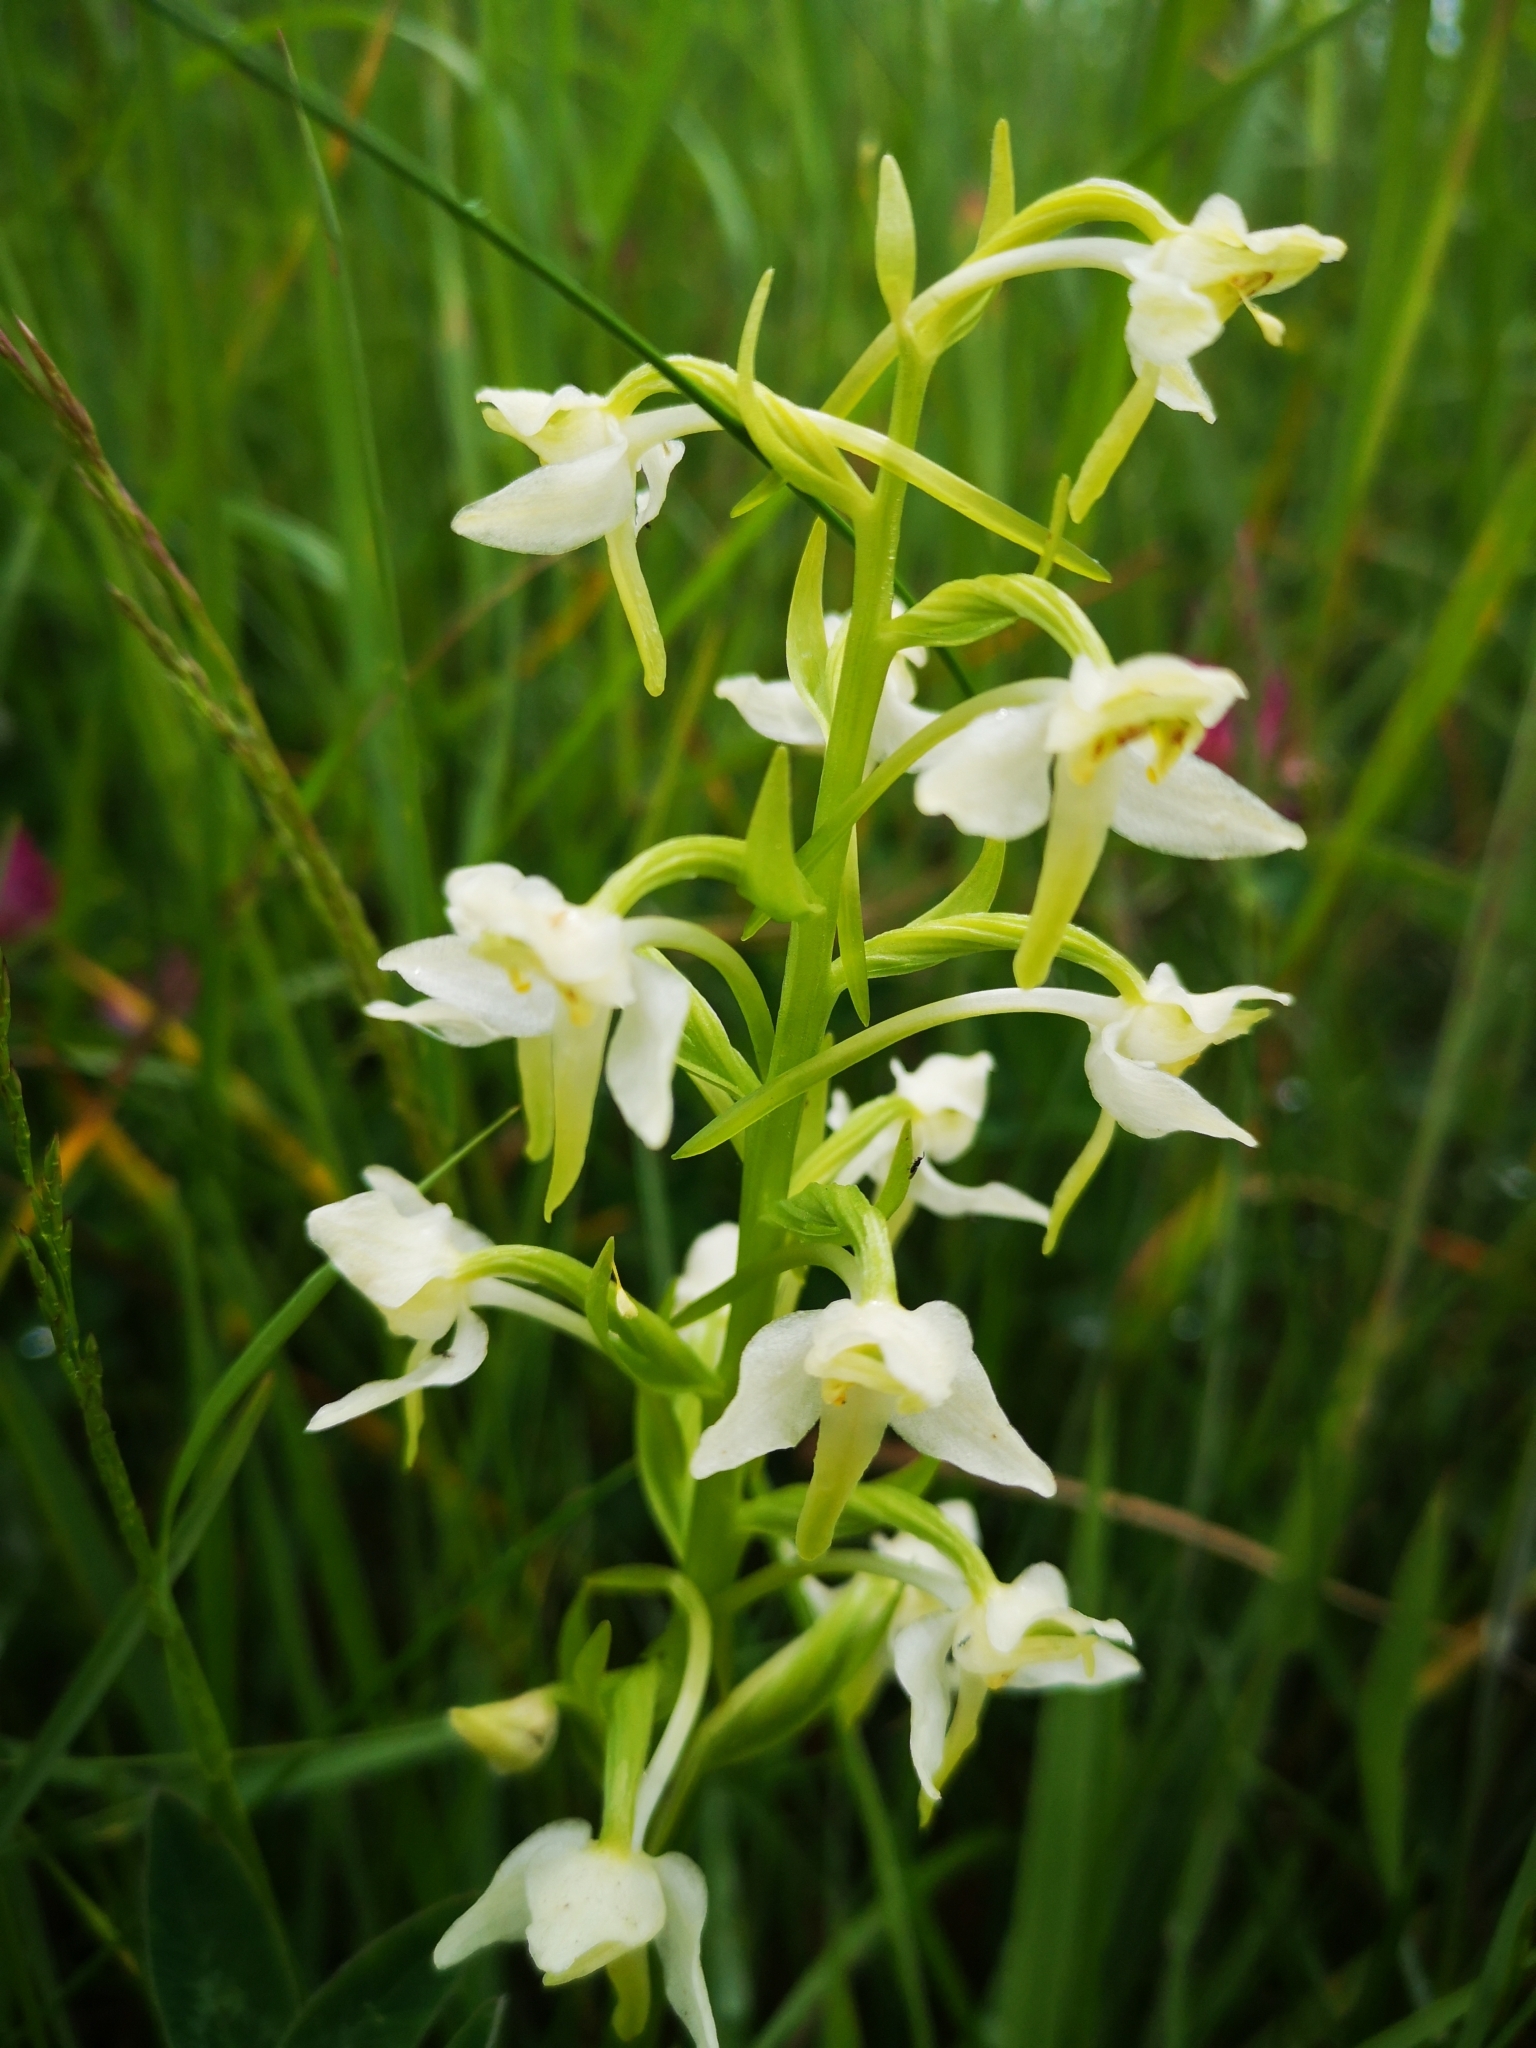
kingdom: Plantae
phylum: Tracheophyta
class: Liliopsida
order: Asparagales
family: Orchidaceae
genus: Platanthera
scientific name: Platanthera chlorantha
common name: Greater butterfly-orchid
